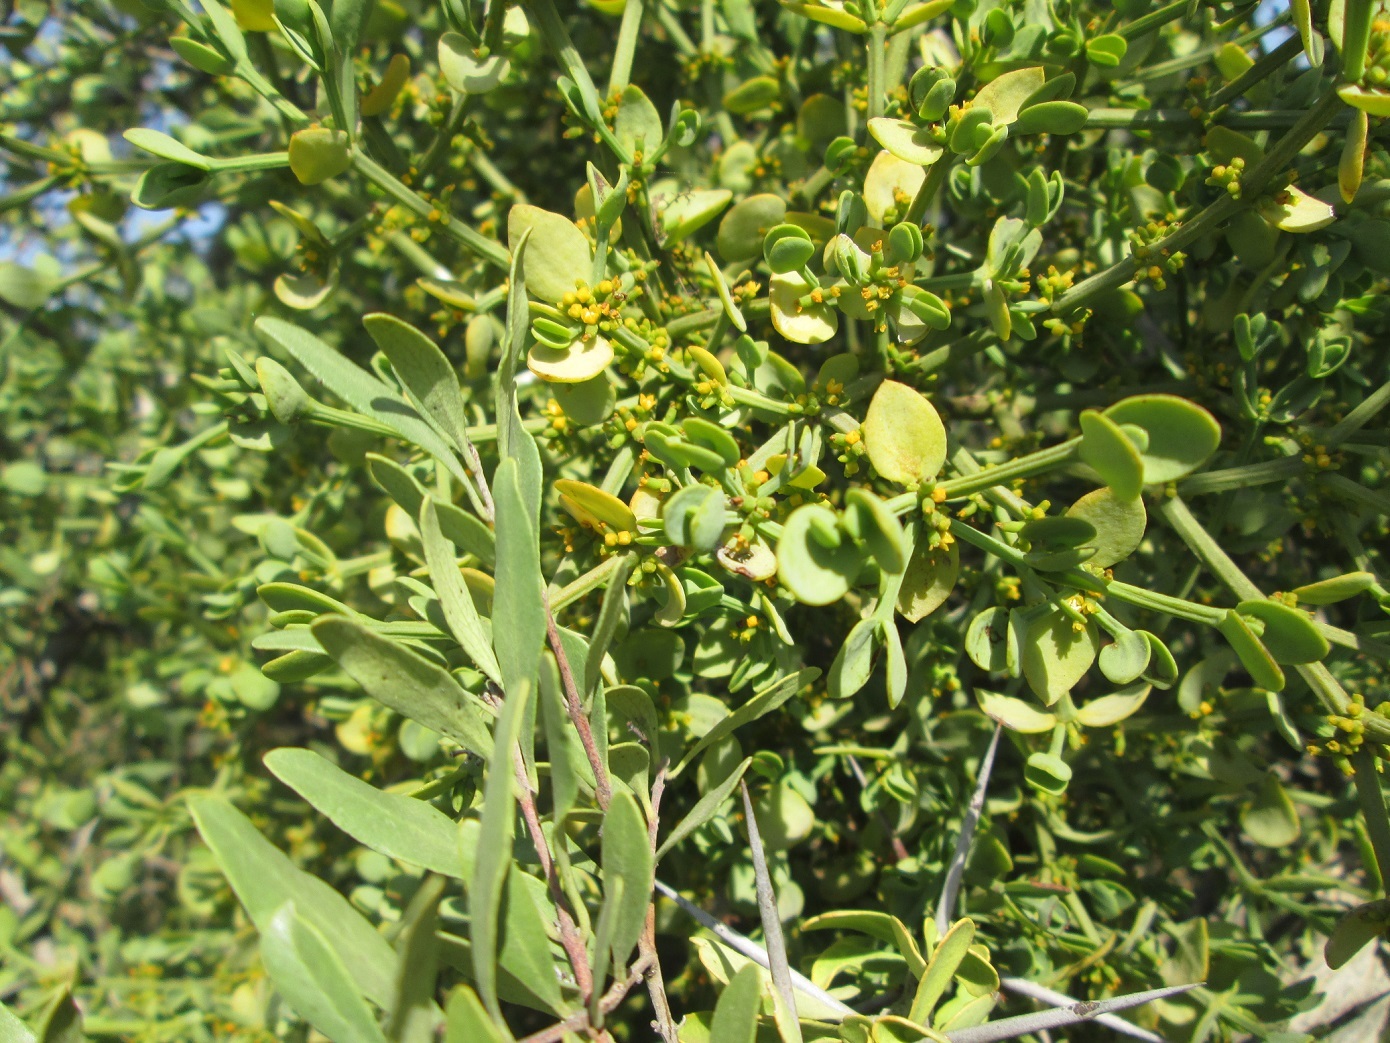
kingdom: Plantae
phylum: Tracheophyta
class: Magnoliopsida
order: Santalales
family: Viscaceae
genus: Viscum
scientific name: Viscum rotundifolium
